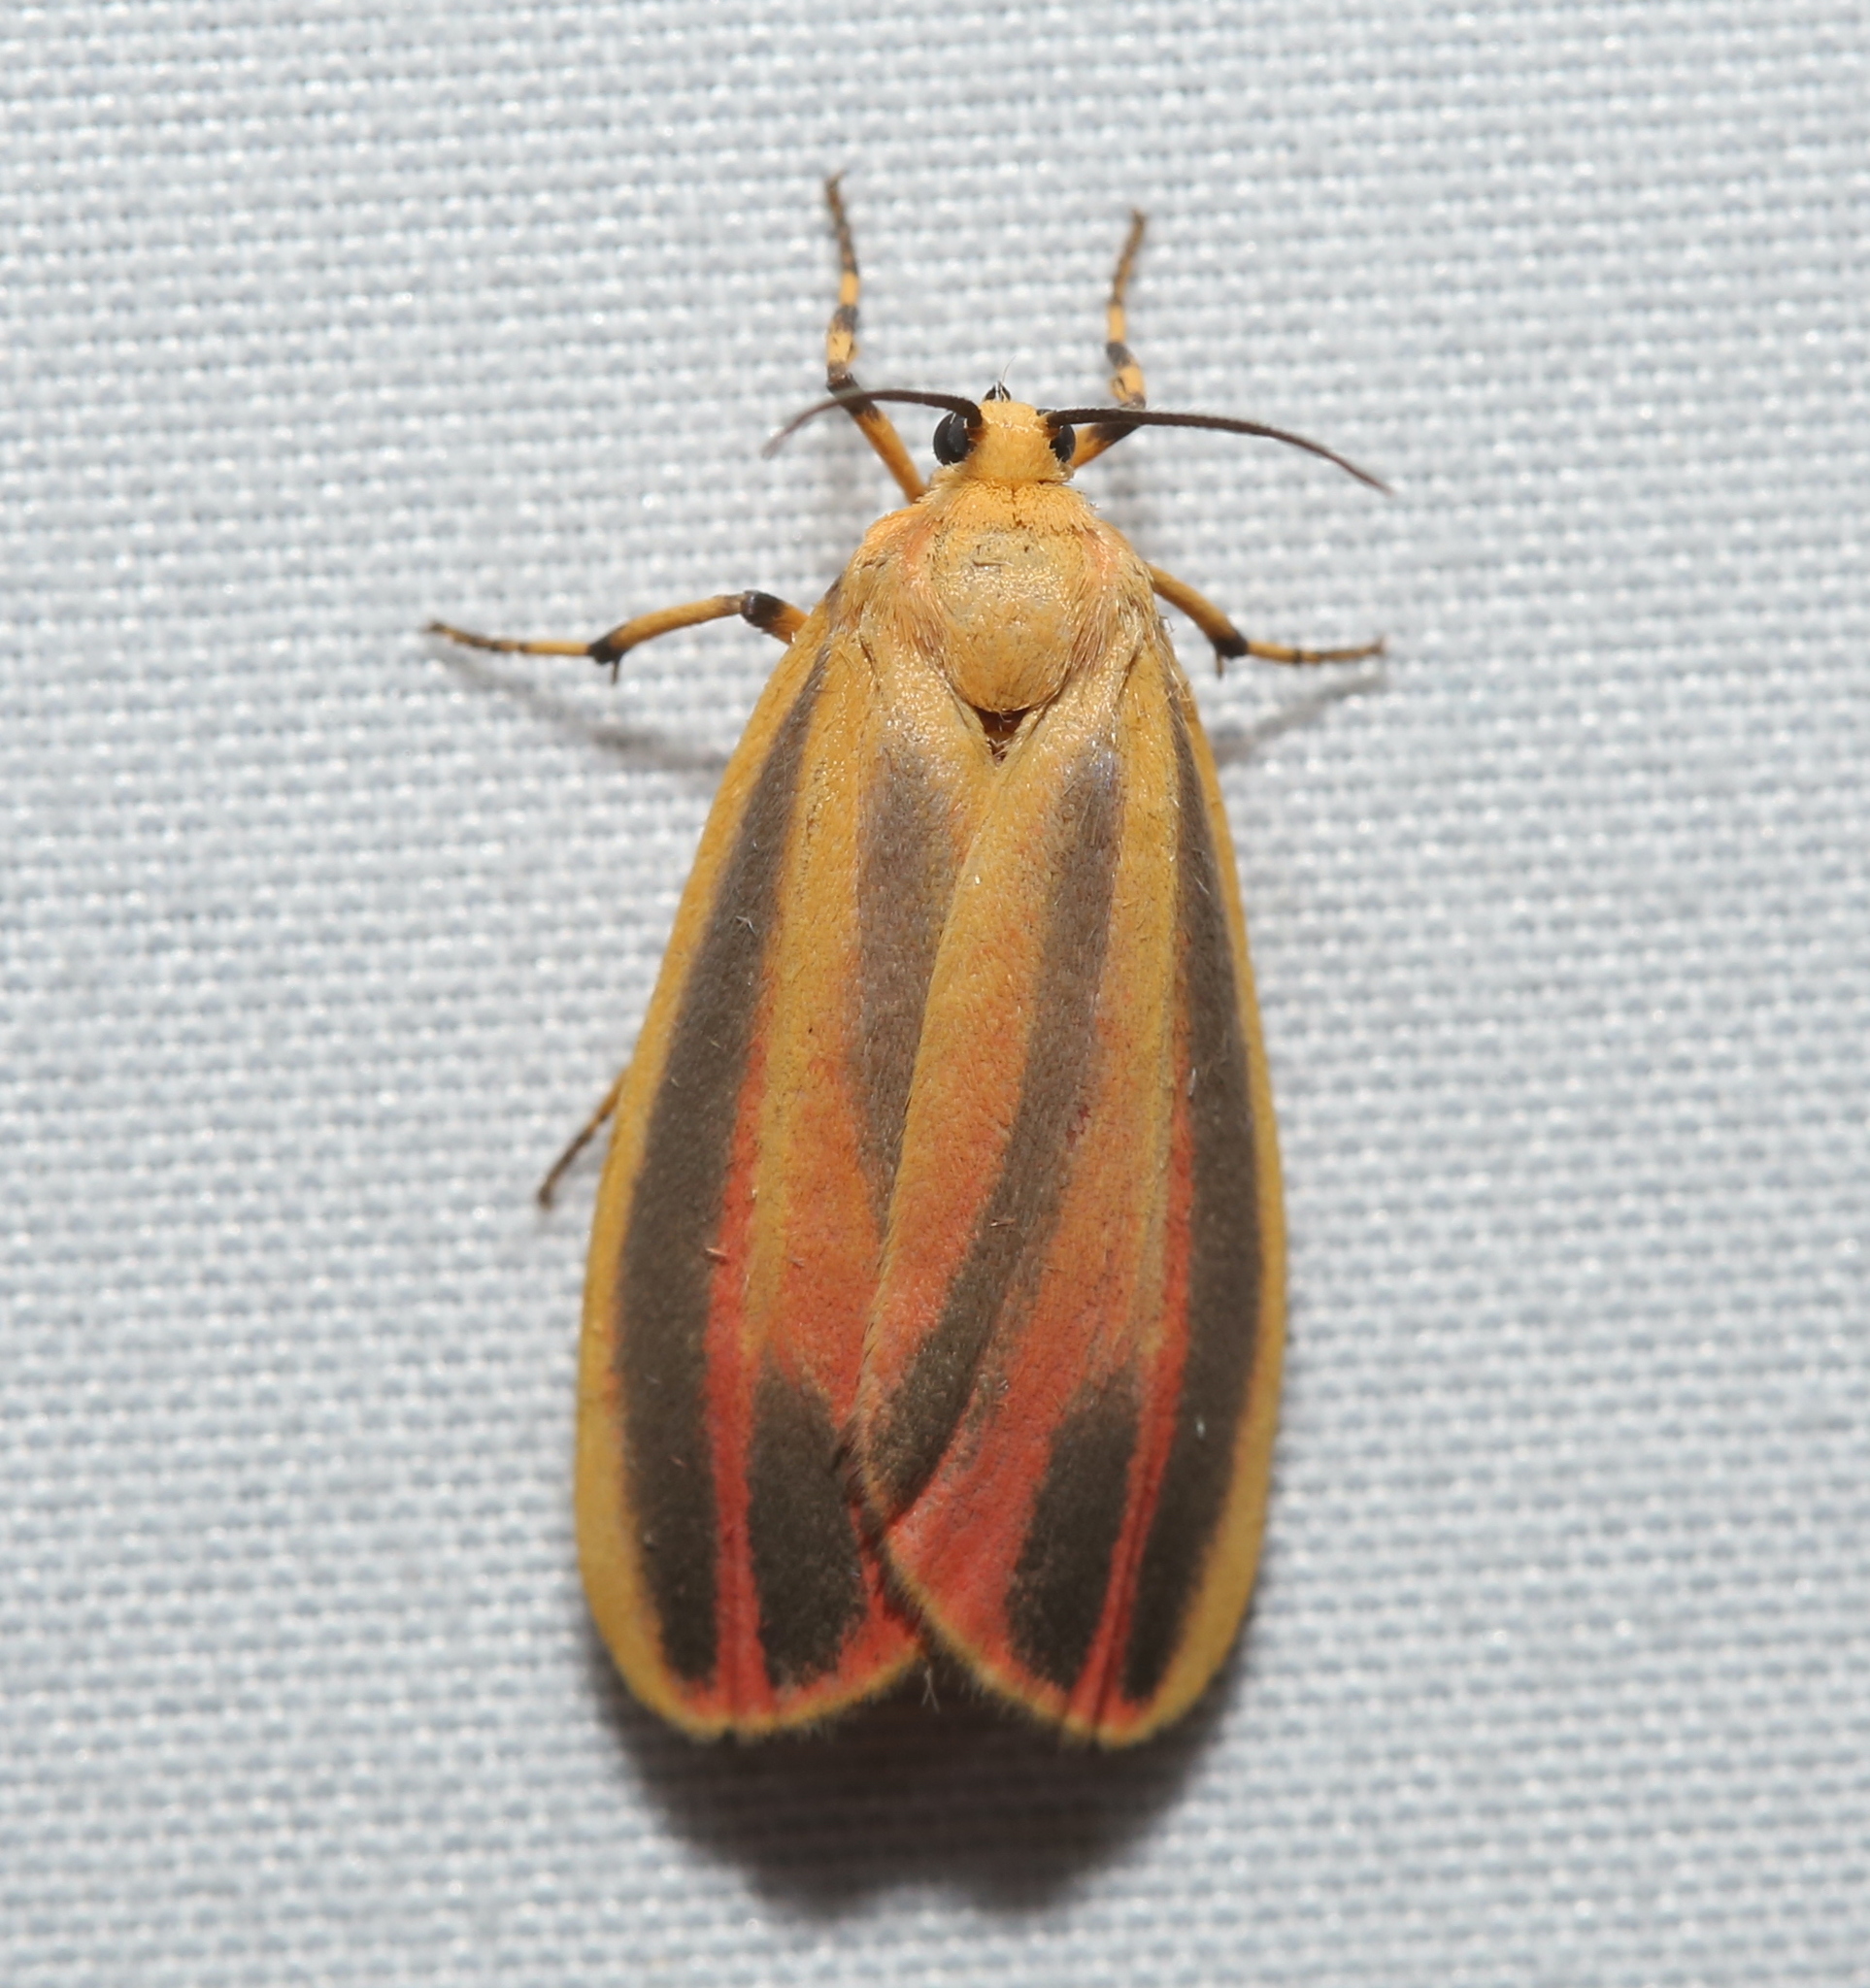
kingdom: Animalia
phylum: Arthropoda
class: Insecta
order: Lepidoptera
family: Erebidae
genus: Hypoprepia
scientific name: Hypoprepia fucosa
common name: Painted lichen moth
